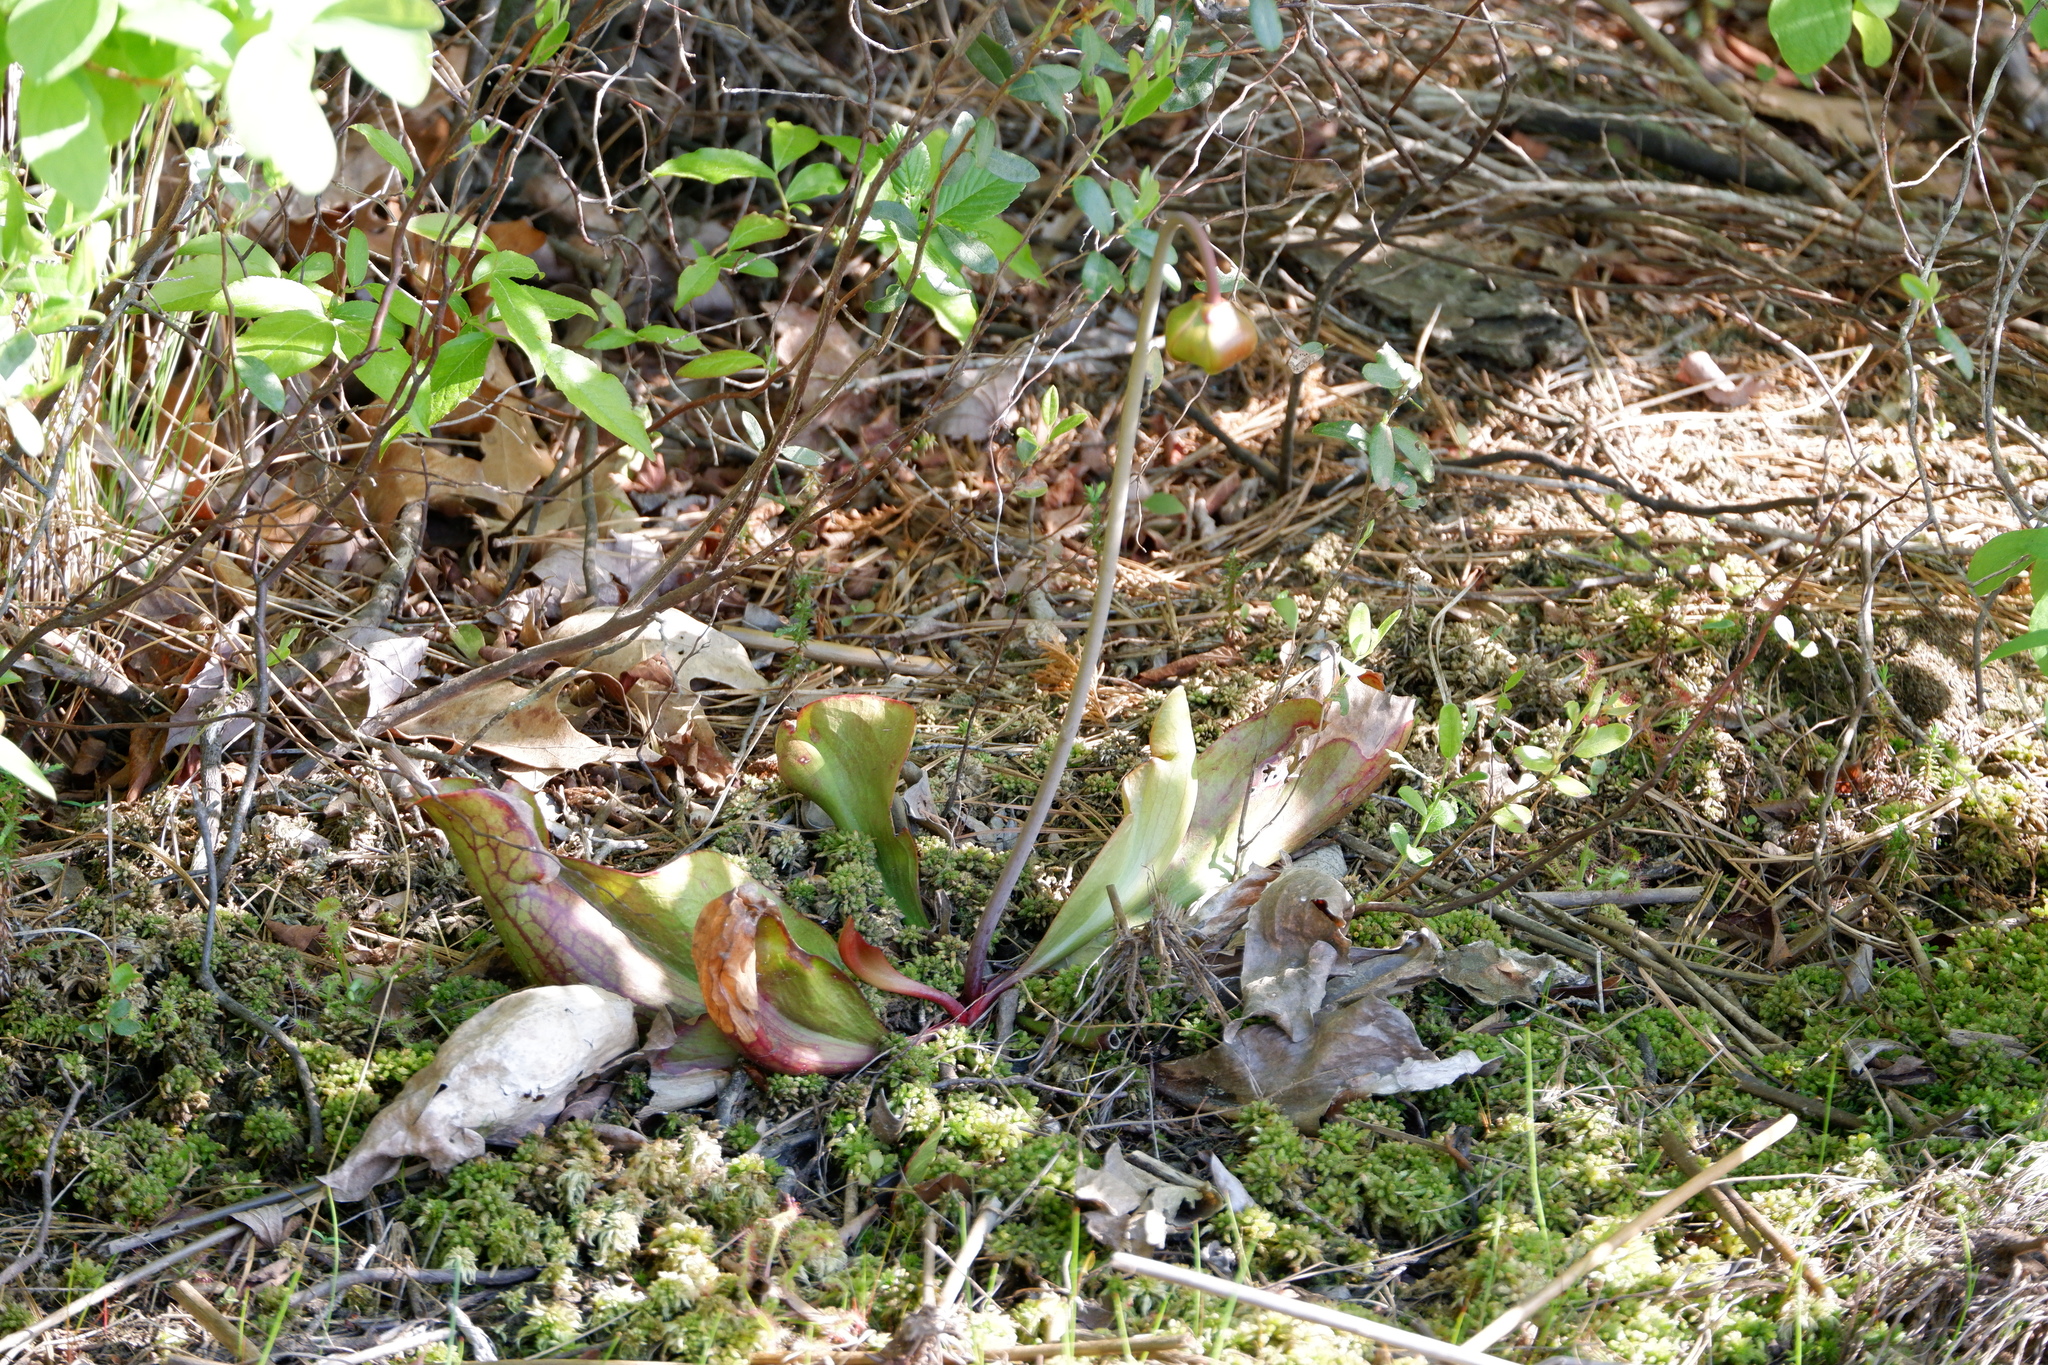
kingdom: Plantae
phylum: Tracheophyta
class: Magnoliopsida
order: Ericales
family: Sarraceniaceae
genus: Sarracenia
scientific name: Sarracenia purpurea
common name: Pitcherplant
